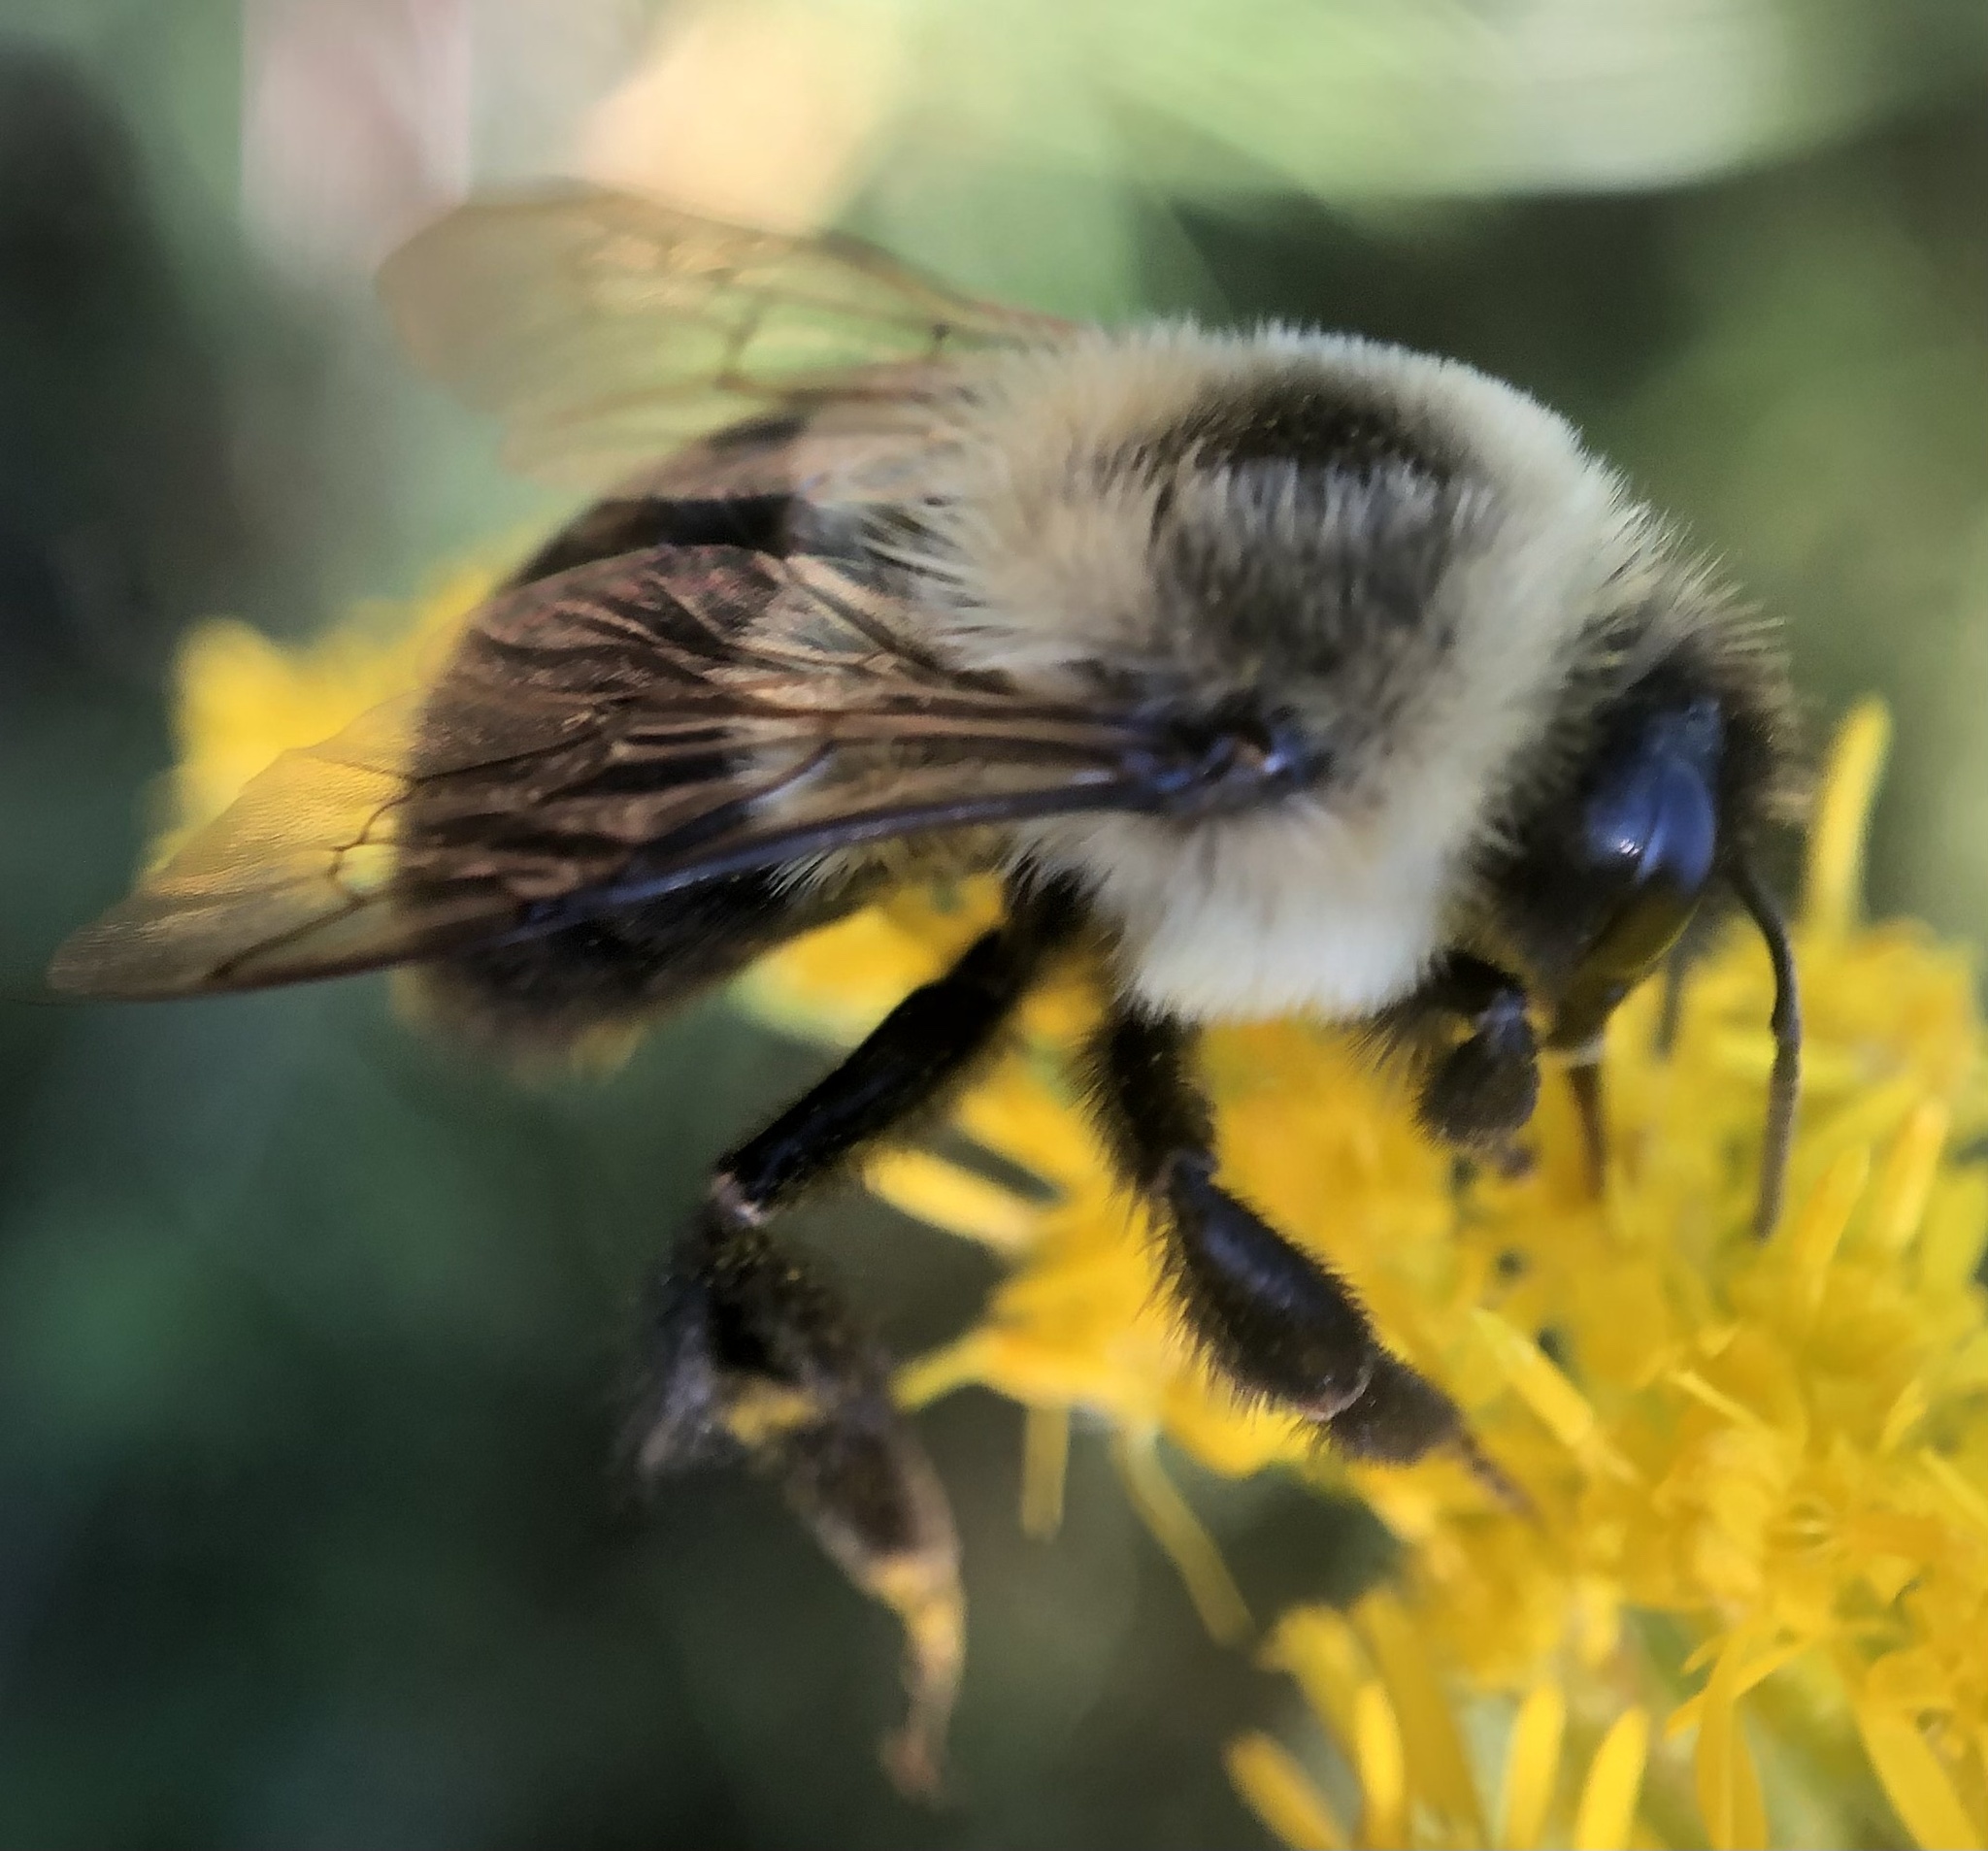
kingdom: Animalia
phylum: Arthropoda
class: Insecta
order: Hymenoptera
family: Apidae
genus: Bombus
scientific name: Bombus impatiens
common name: Common eastern bumble bee
